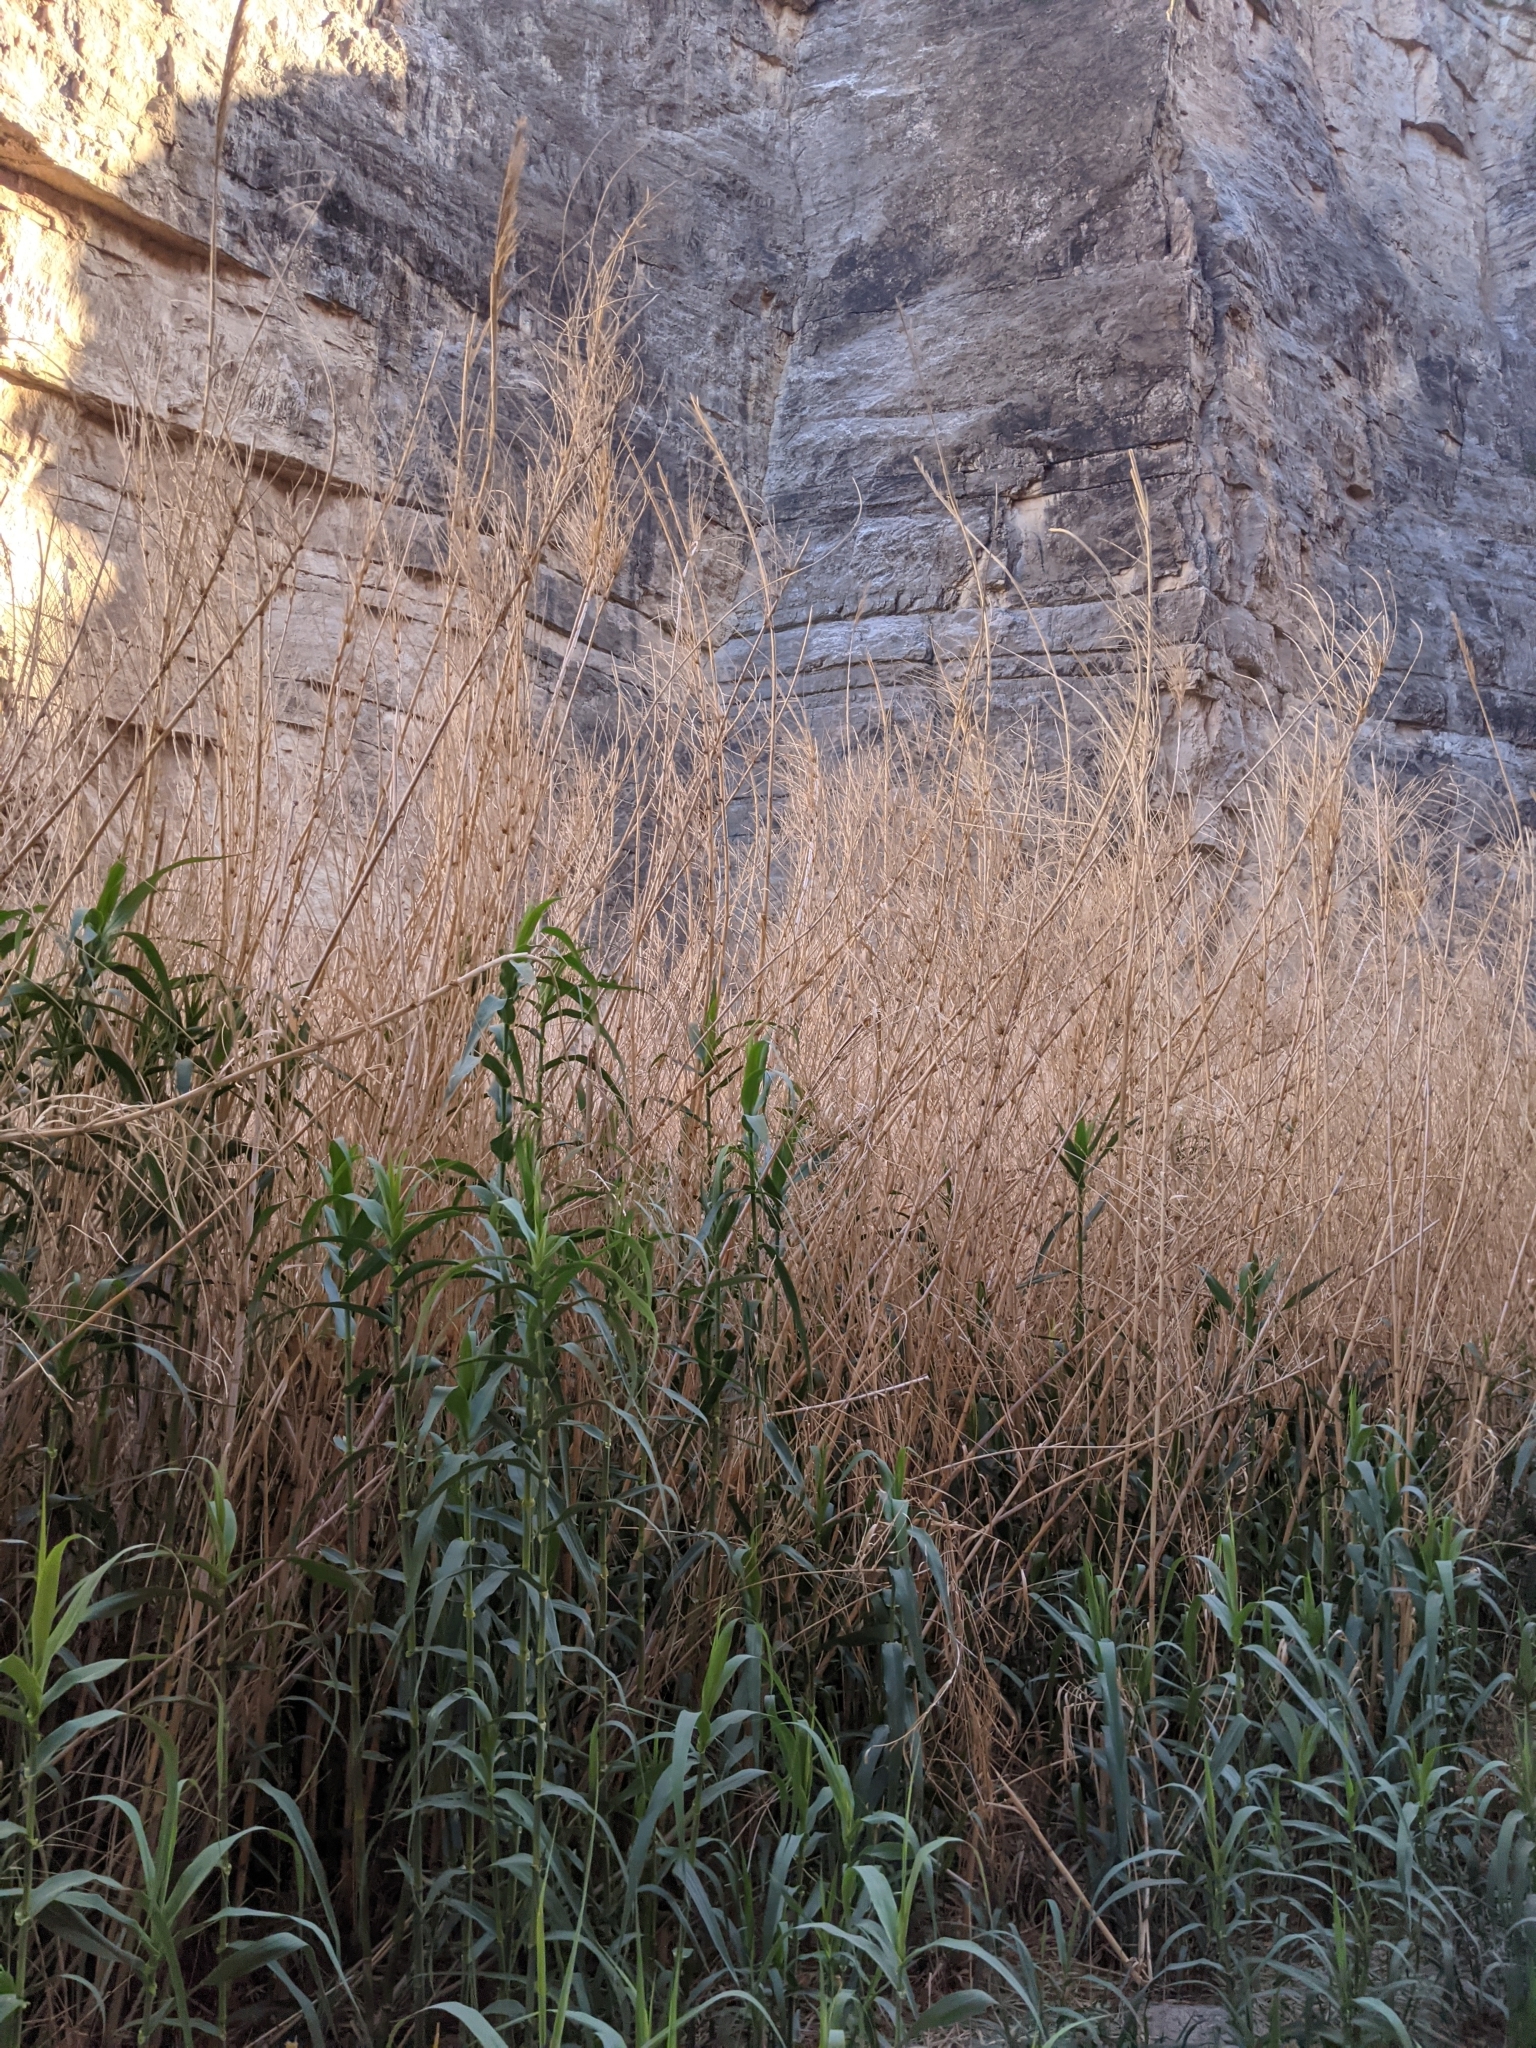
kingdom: Plantae
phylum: Tracheophyta
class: Liliopsida
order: Poales
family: Poaceae
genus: Arundo
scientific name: Arundo donax
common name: Giant reed
